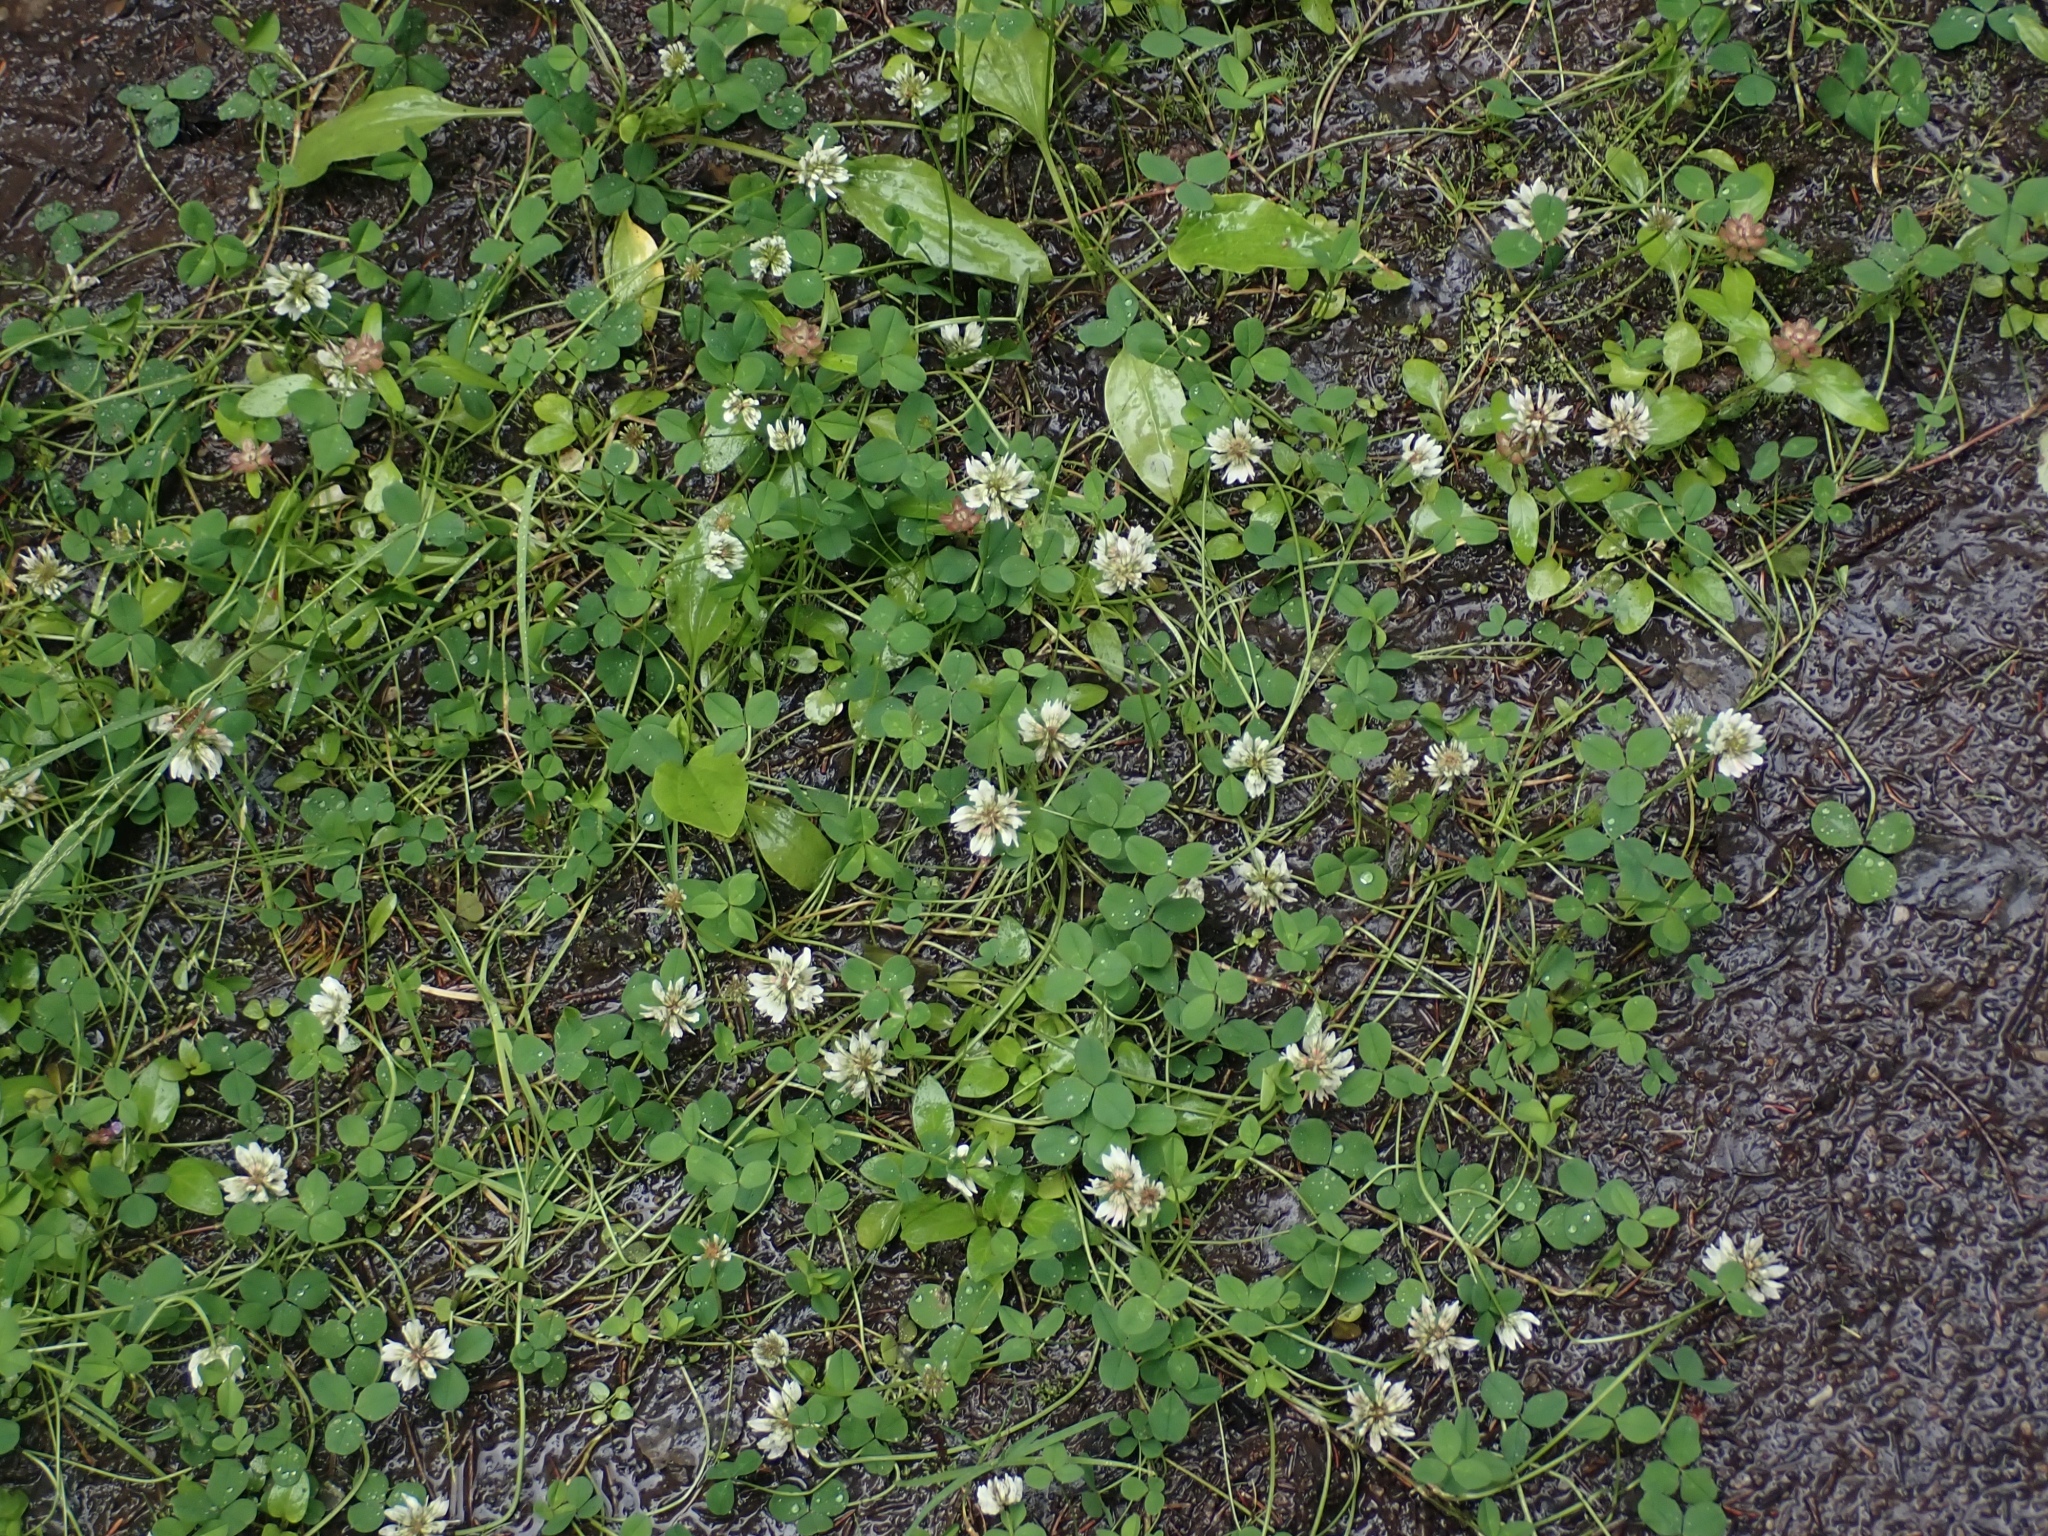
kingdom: Plantae
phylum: Tracheophyta
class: Magnoliopsida
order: Fabales
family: Fabaceae
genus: Trifolium
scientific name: Trifolium repens
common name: White clover
